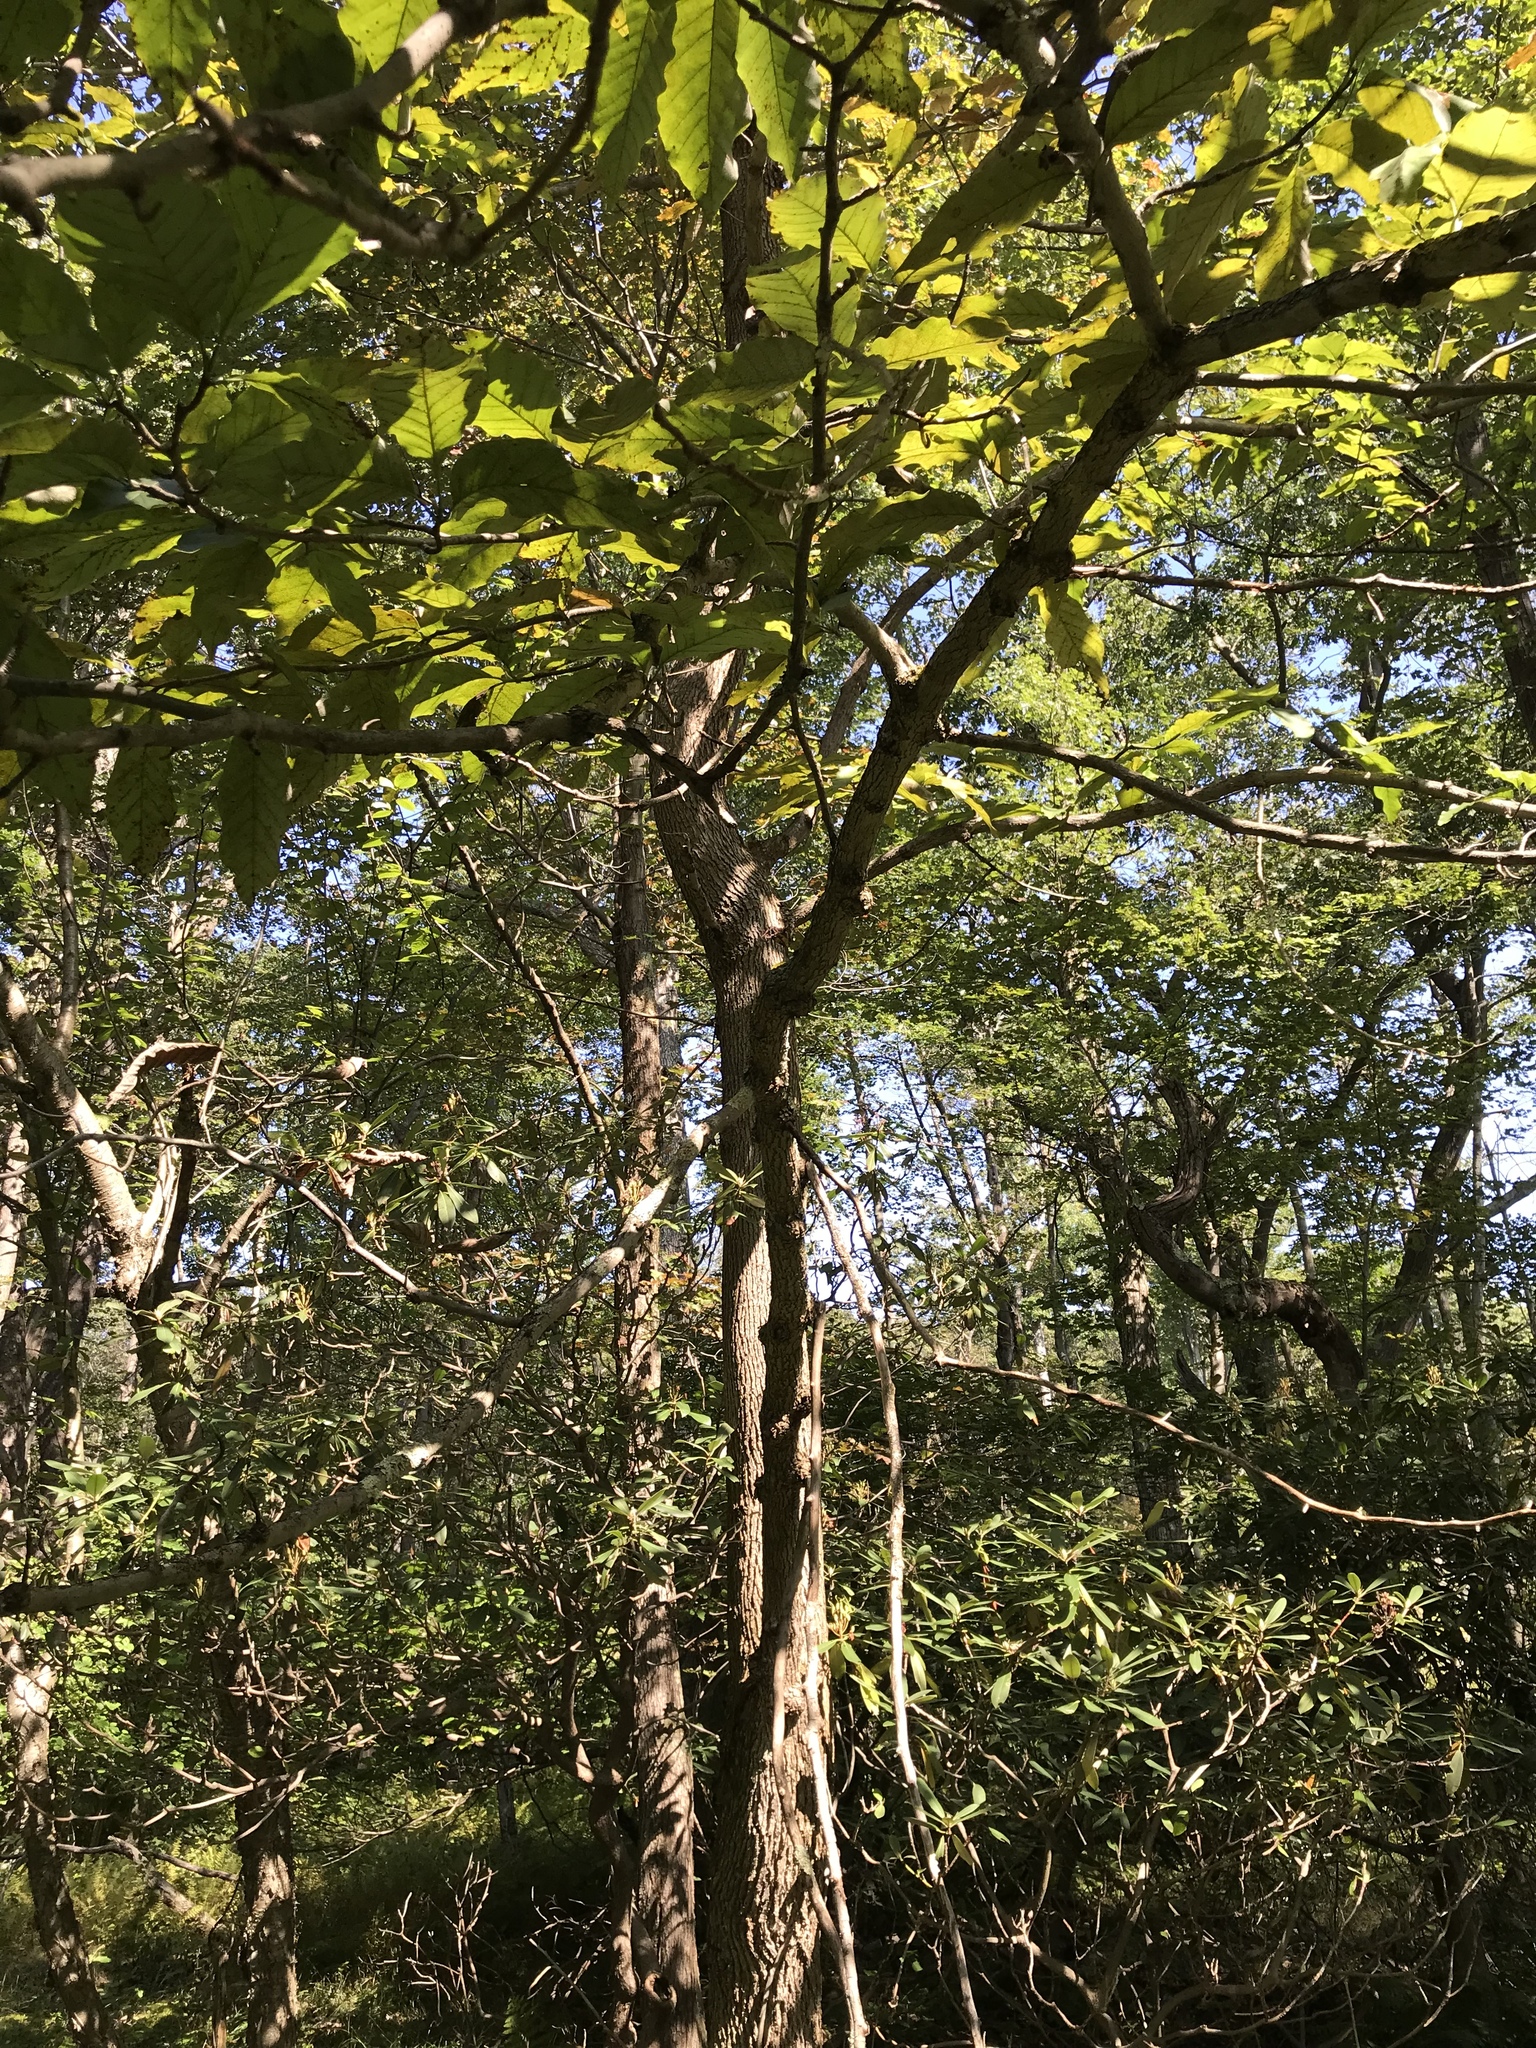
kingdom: Plantae
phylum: Tracheophyta
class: Magnoliopsida
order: Magnoliales
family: Magnoliaceae
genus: Magnolia
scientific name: Magnolia acuminata
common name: Cucumber magnolia
